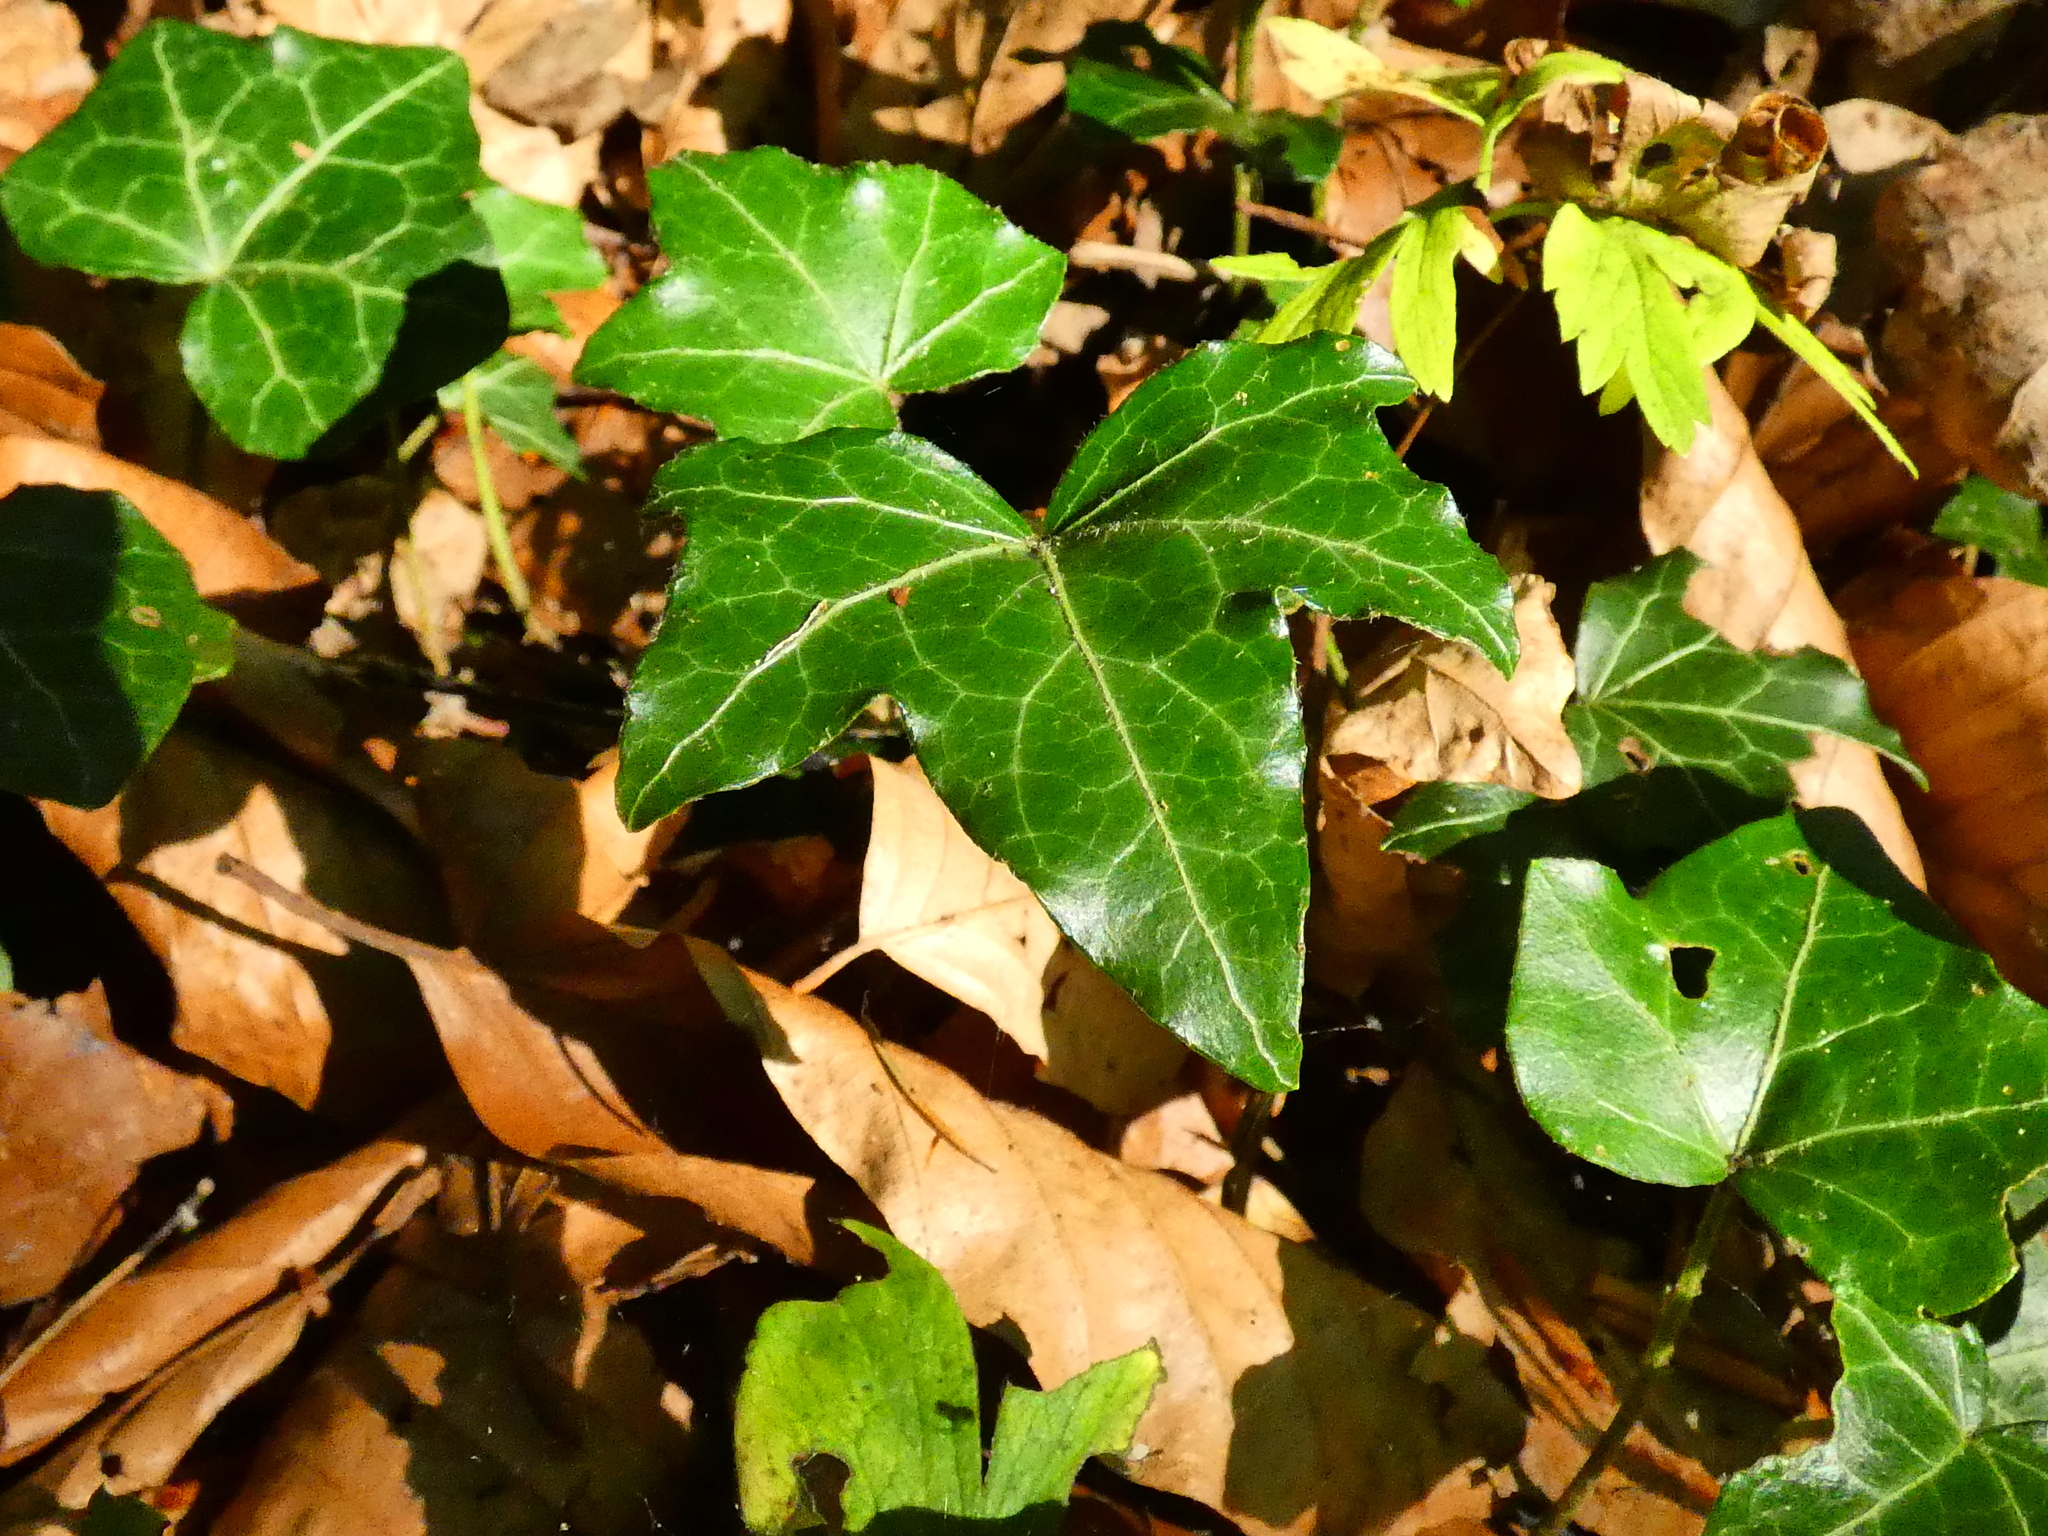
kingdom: Plantae
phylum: Tracheophyta
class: Magnoliopsida
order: Apiales
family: Araliaceae
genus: Hedera
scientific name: Hedera helix
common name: Ivy
